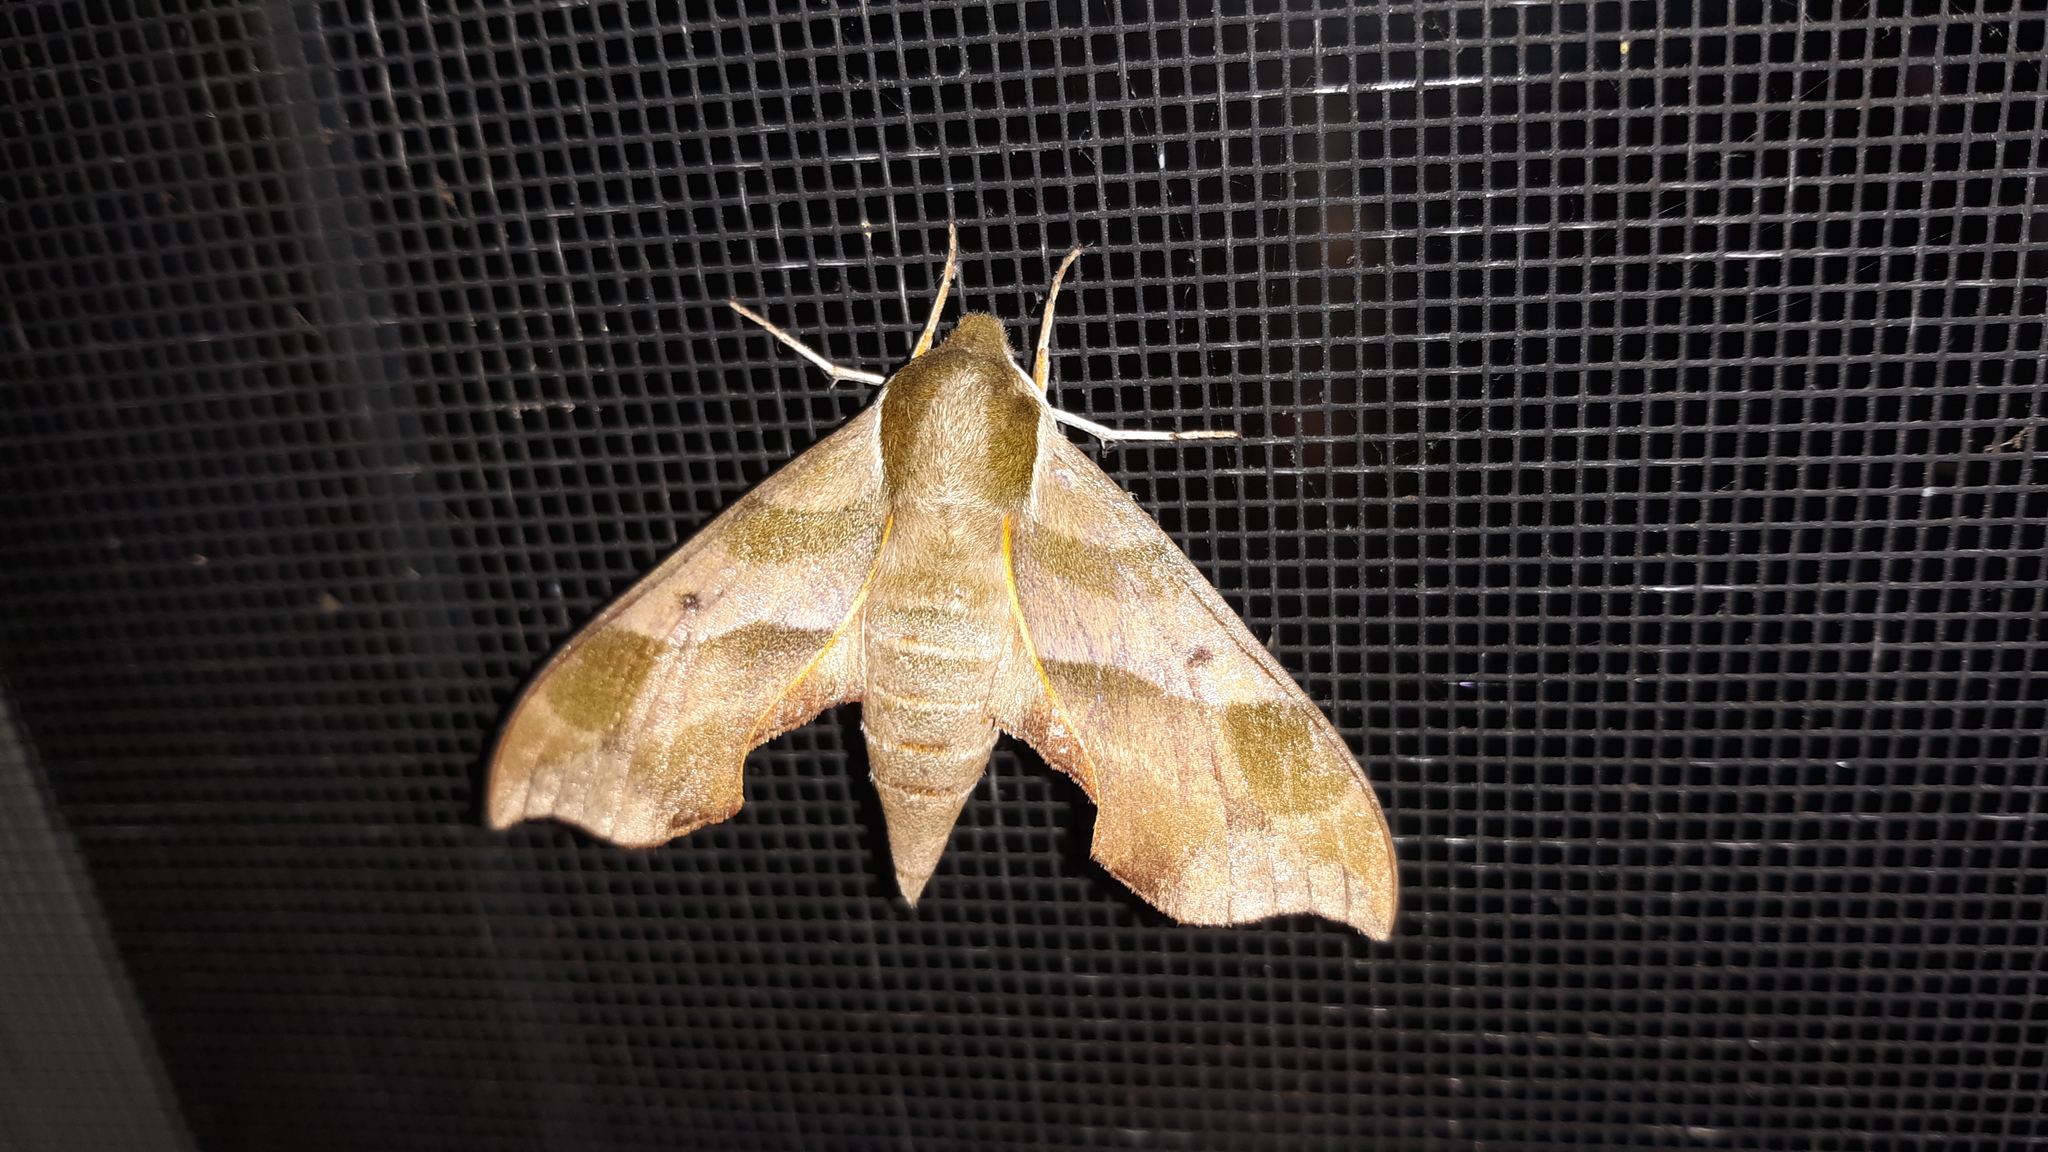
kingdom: Animalia
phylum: Arthropoda
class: Insecta
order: Lepidoptera
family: Sphingidae
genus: Darapsa
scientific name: Darapsa myron
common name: Hog sphinx
